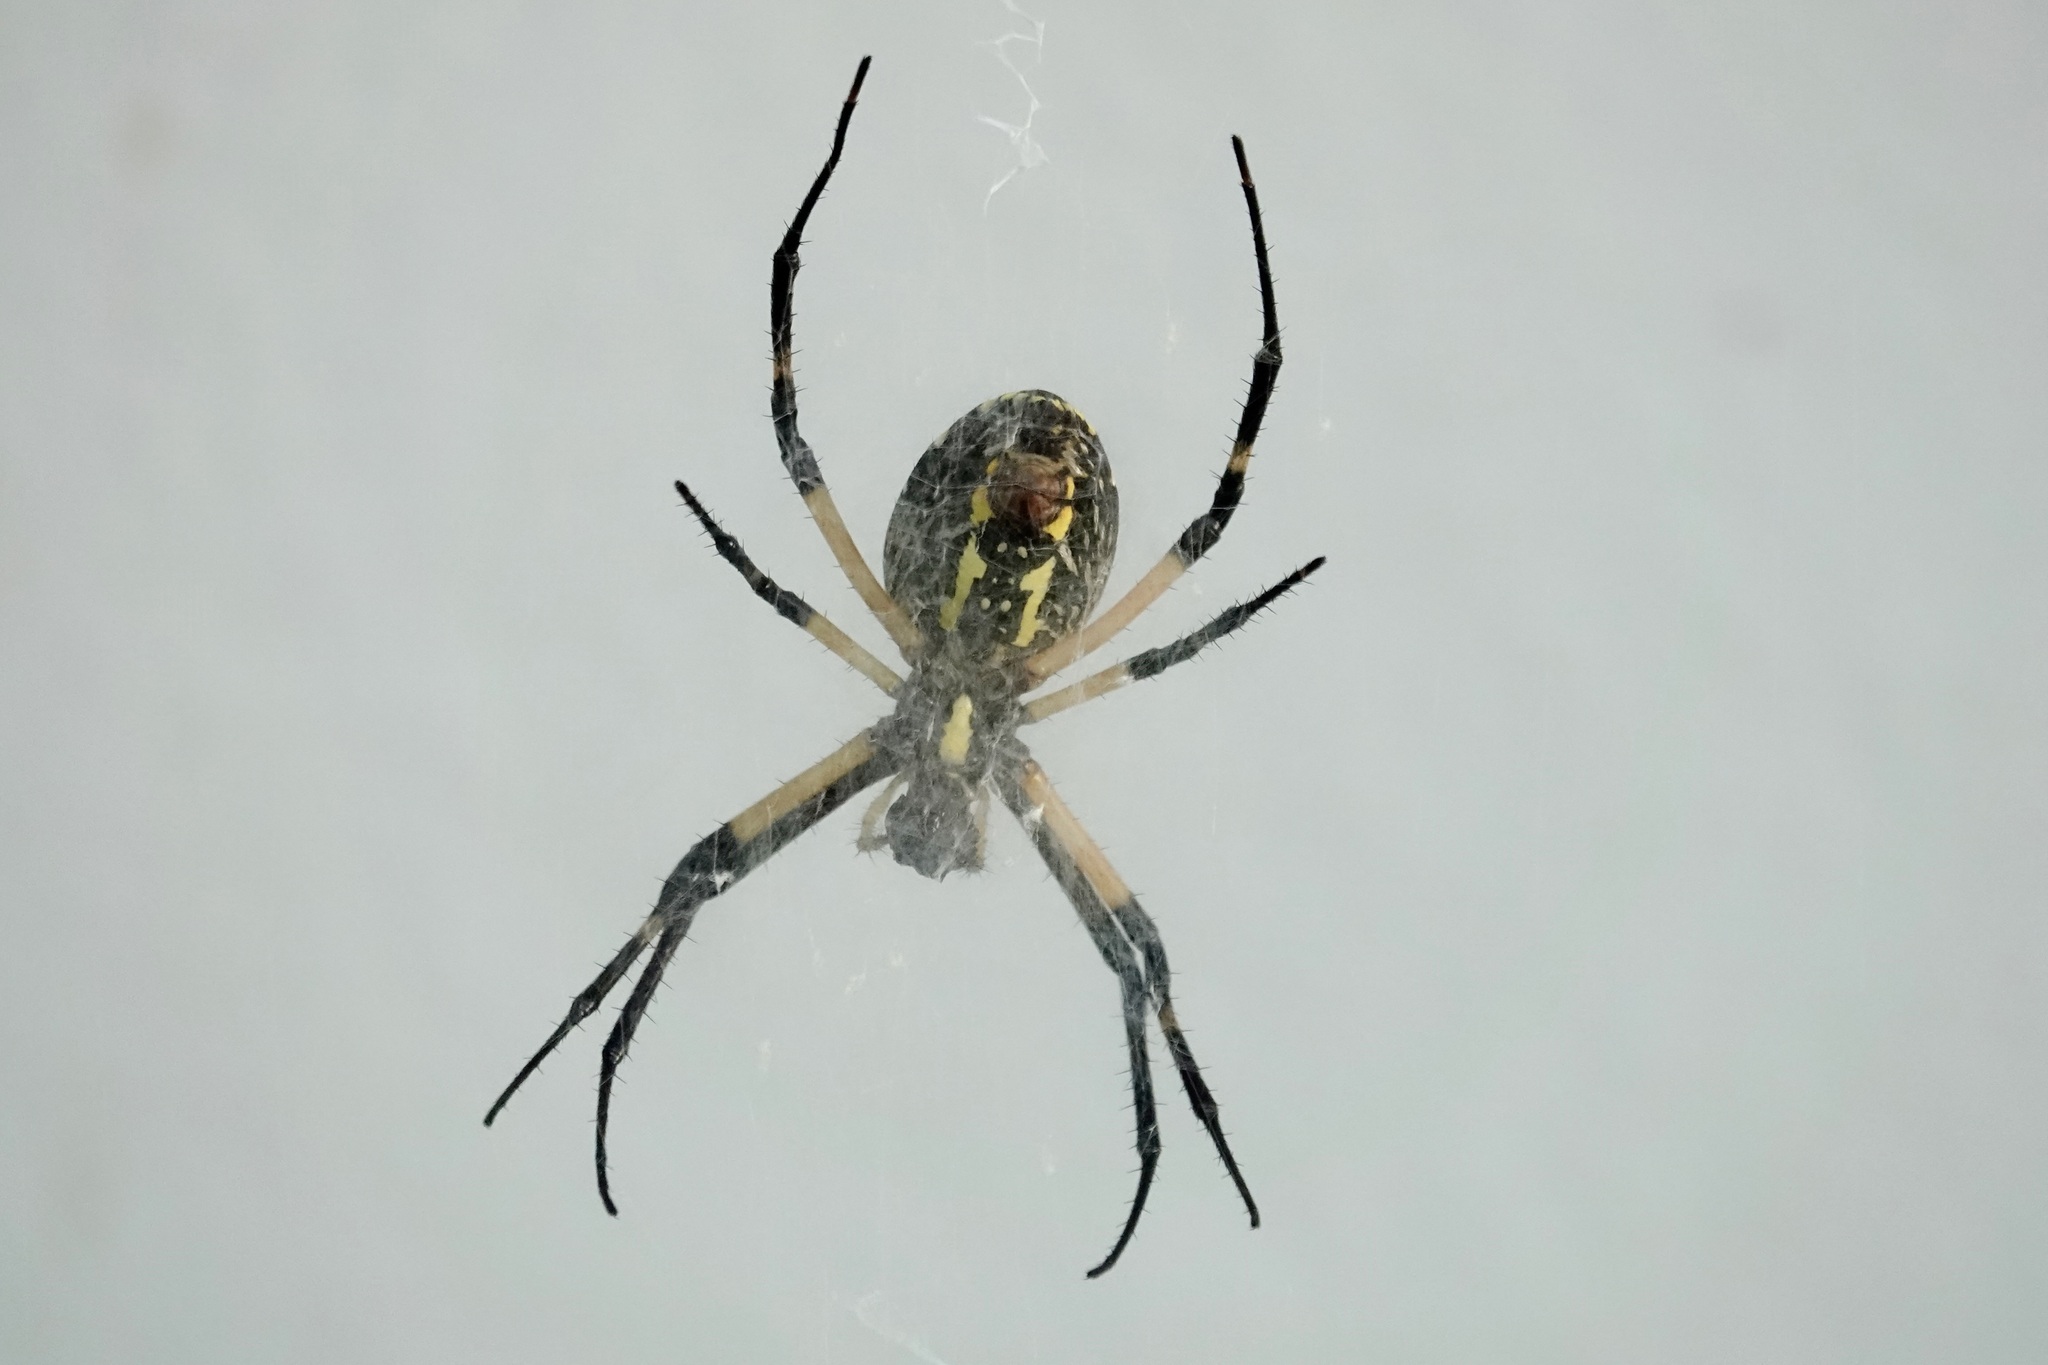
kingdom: Animalia
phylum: Arthropoda
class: Arachnida
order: Araneae
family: Araneidae
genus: Argiope
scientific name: Argiope aurantia
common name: Orb weavers
